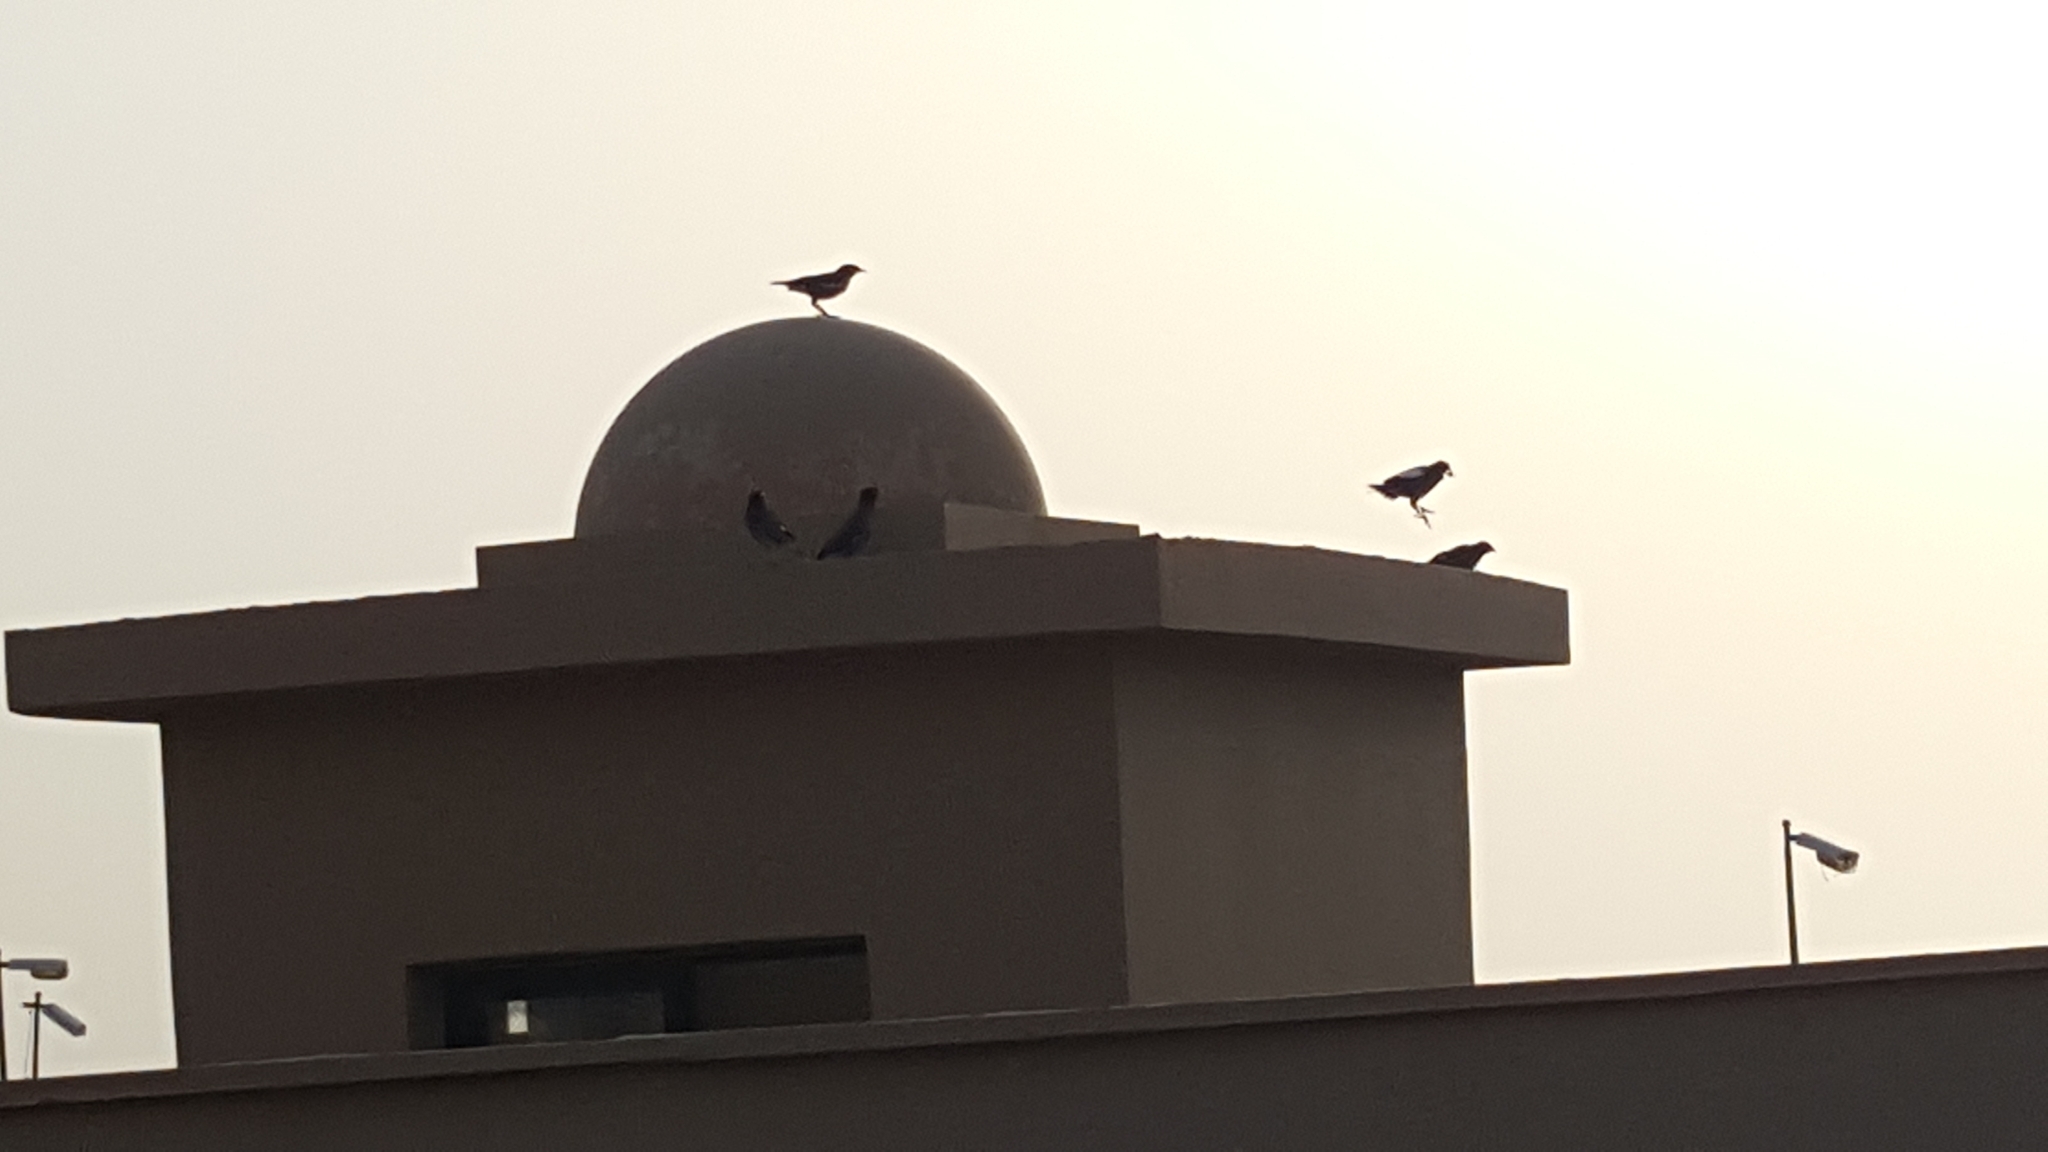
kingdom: Animalia
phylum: Chordata
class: Aves
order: Passeriformes
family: Sturnidae
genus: Acridotheres
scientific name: Acridotheres tristis
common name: Common myna
